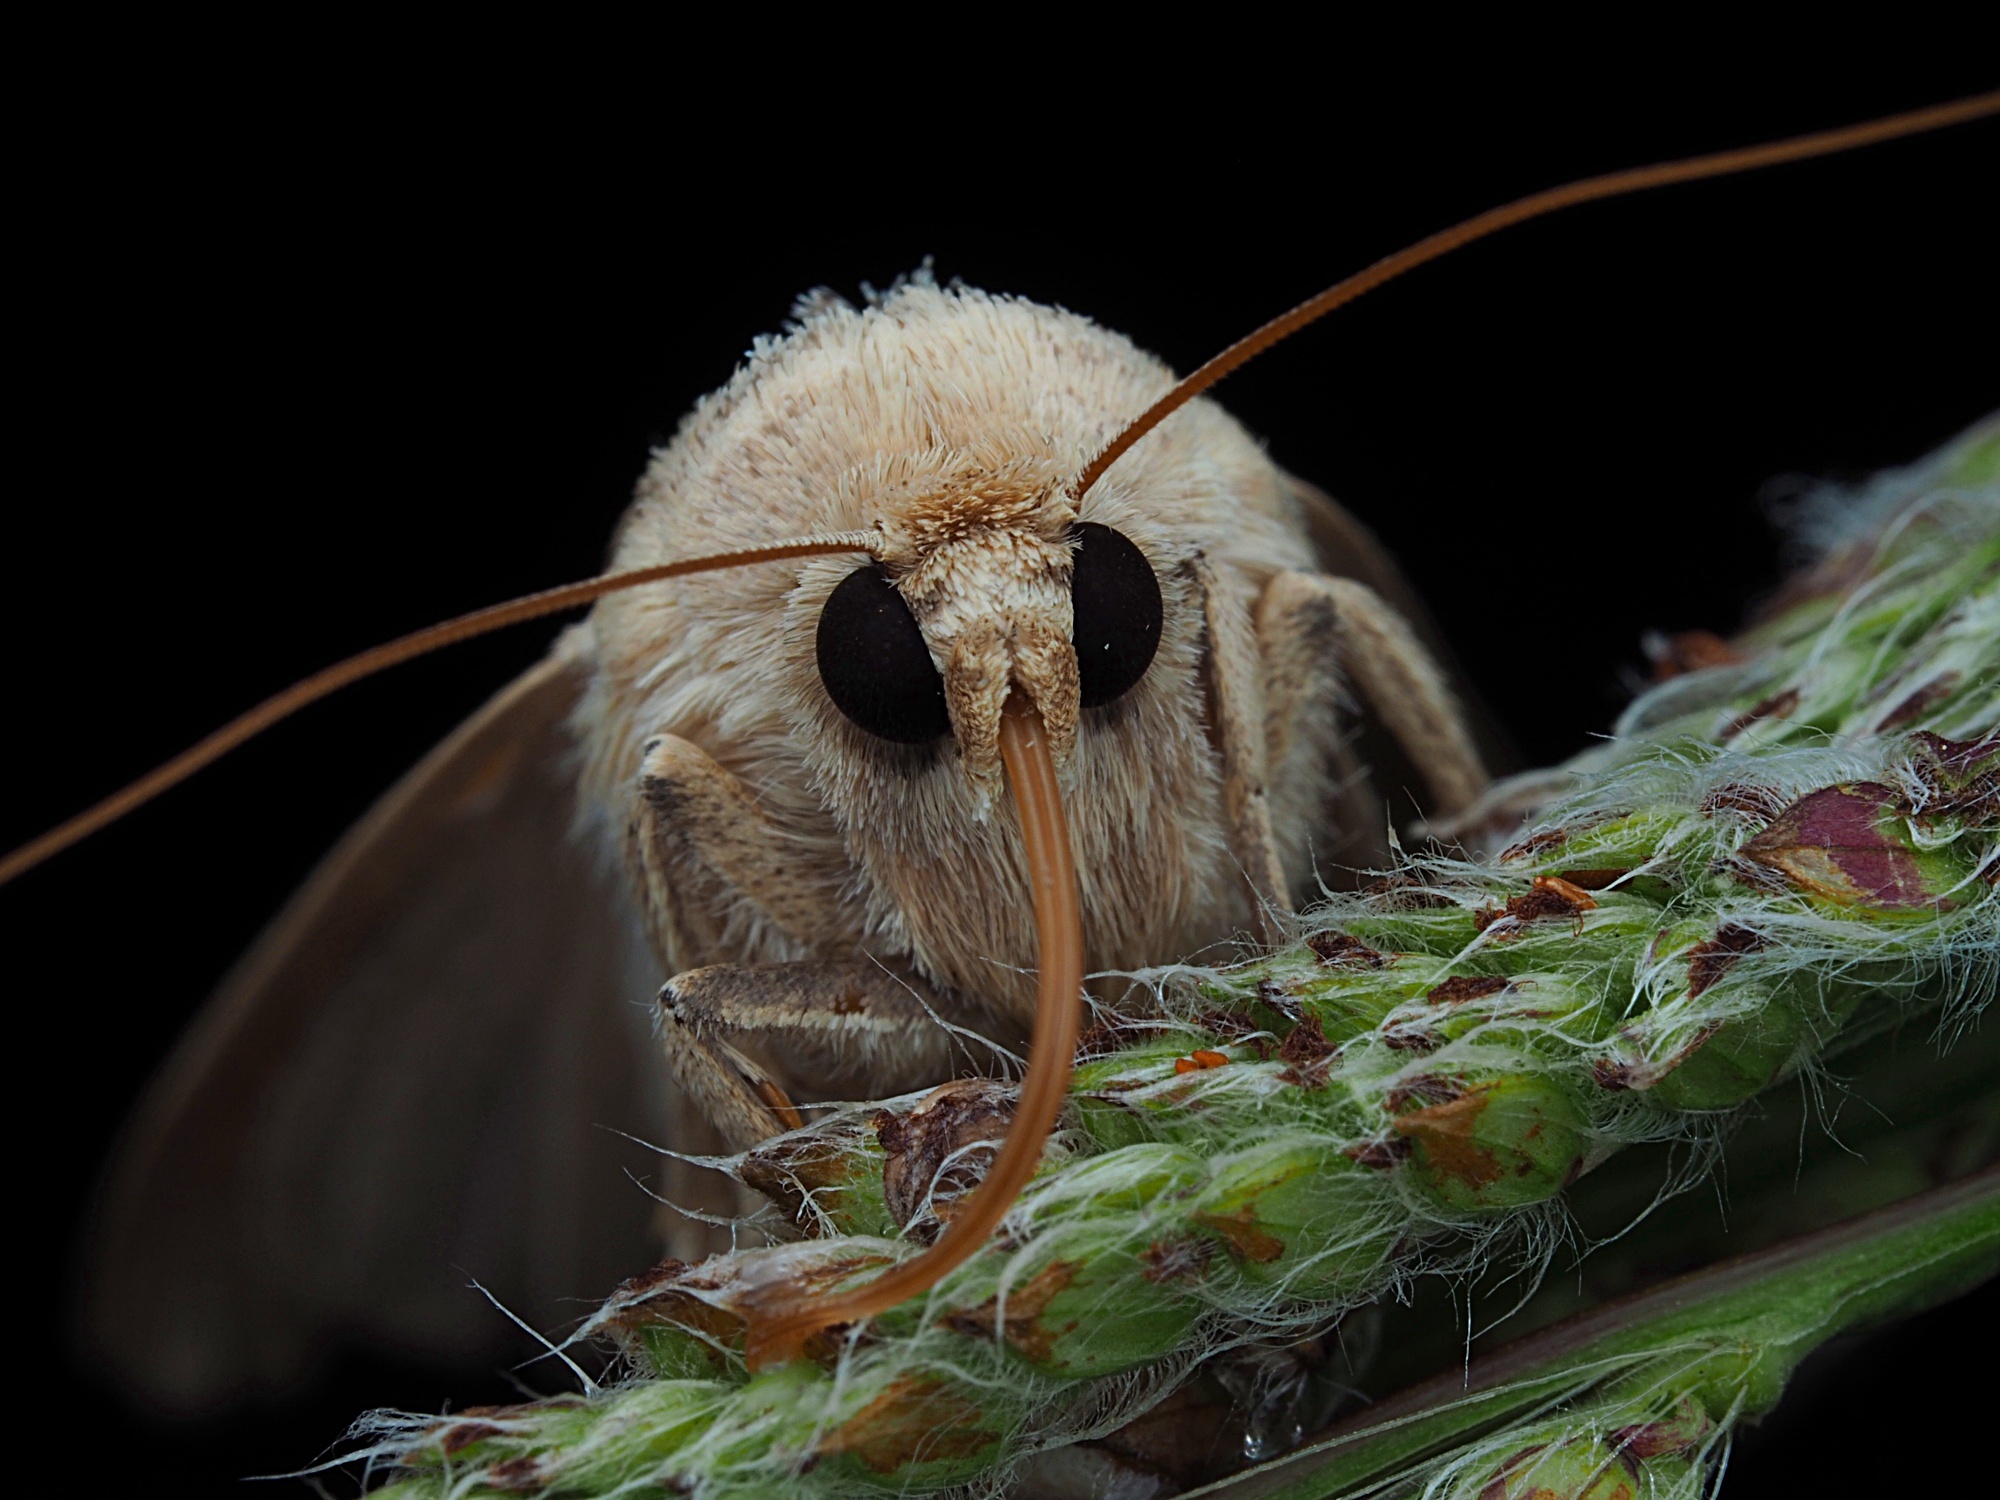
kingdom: Animalia
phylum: Arthropoda
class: Insecta
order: Lepidoptera
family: Erebidae
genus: Pantydia
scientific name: Pantydia sparsa
